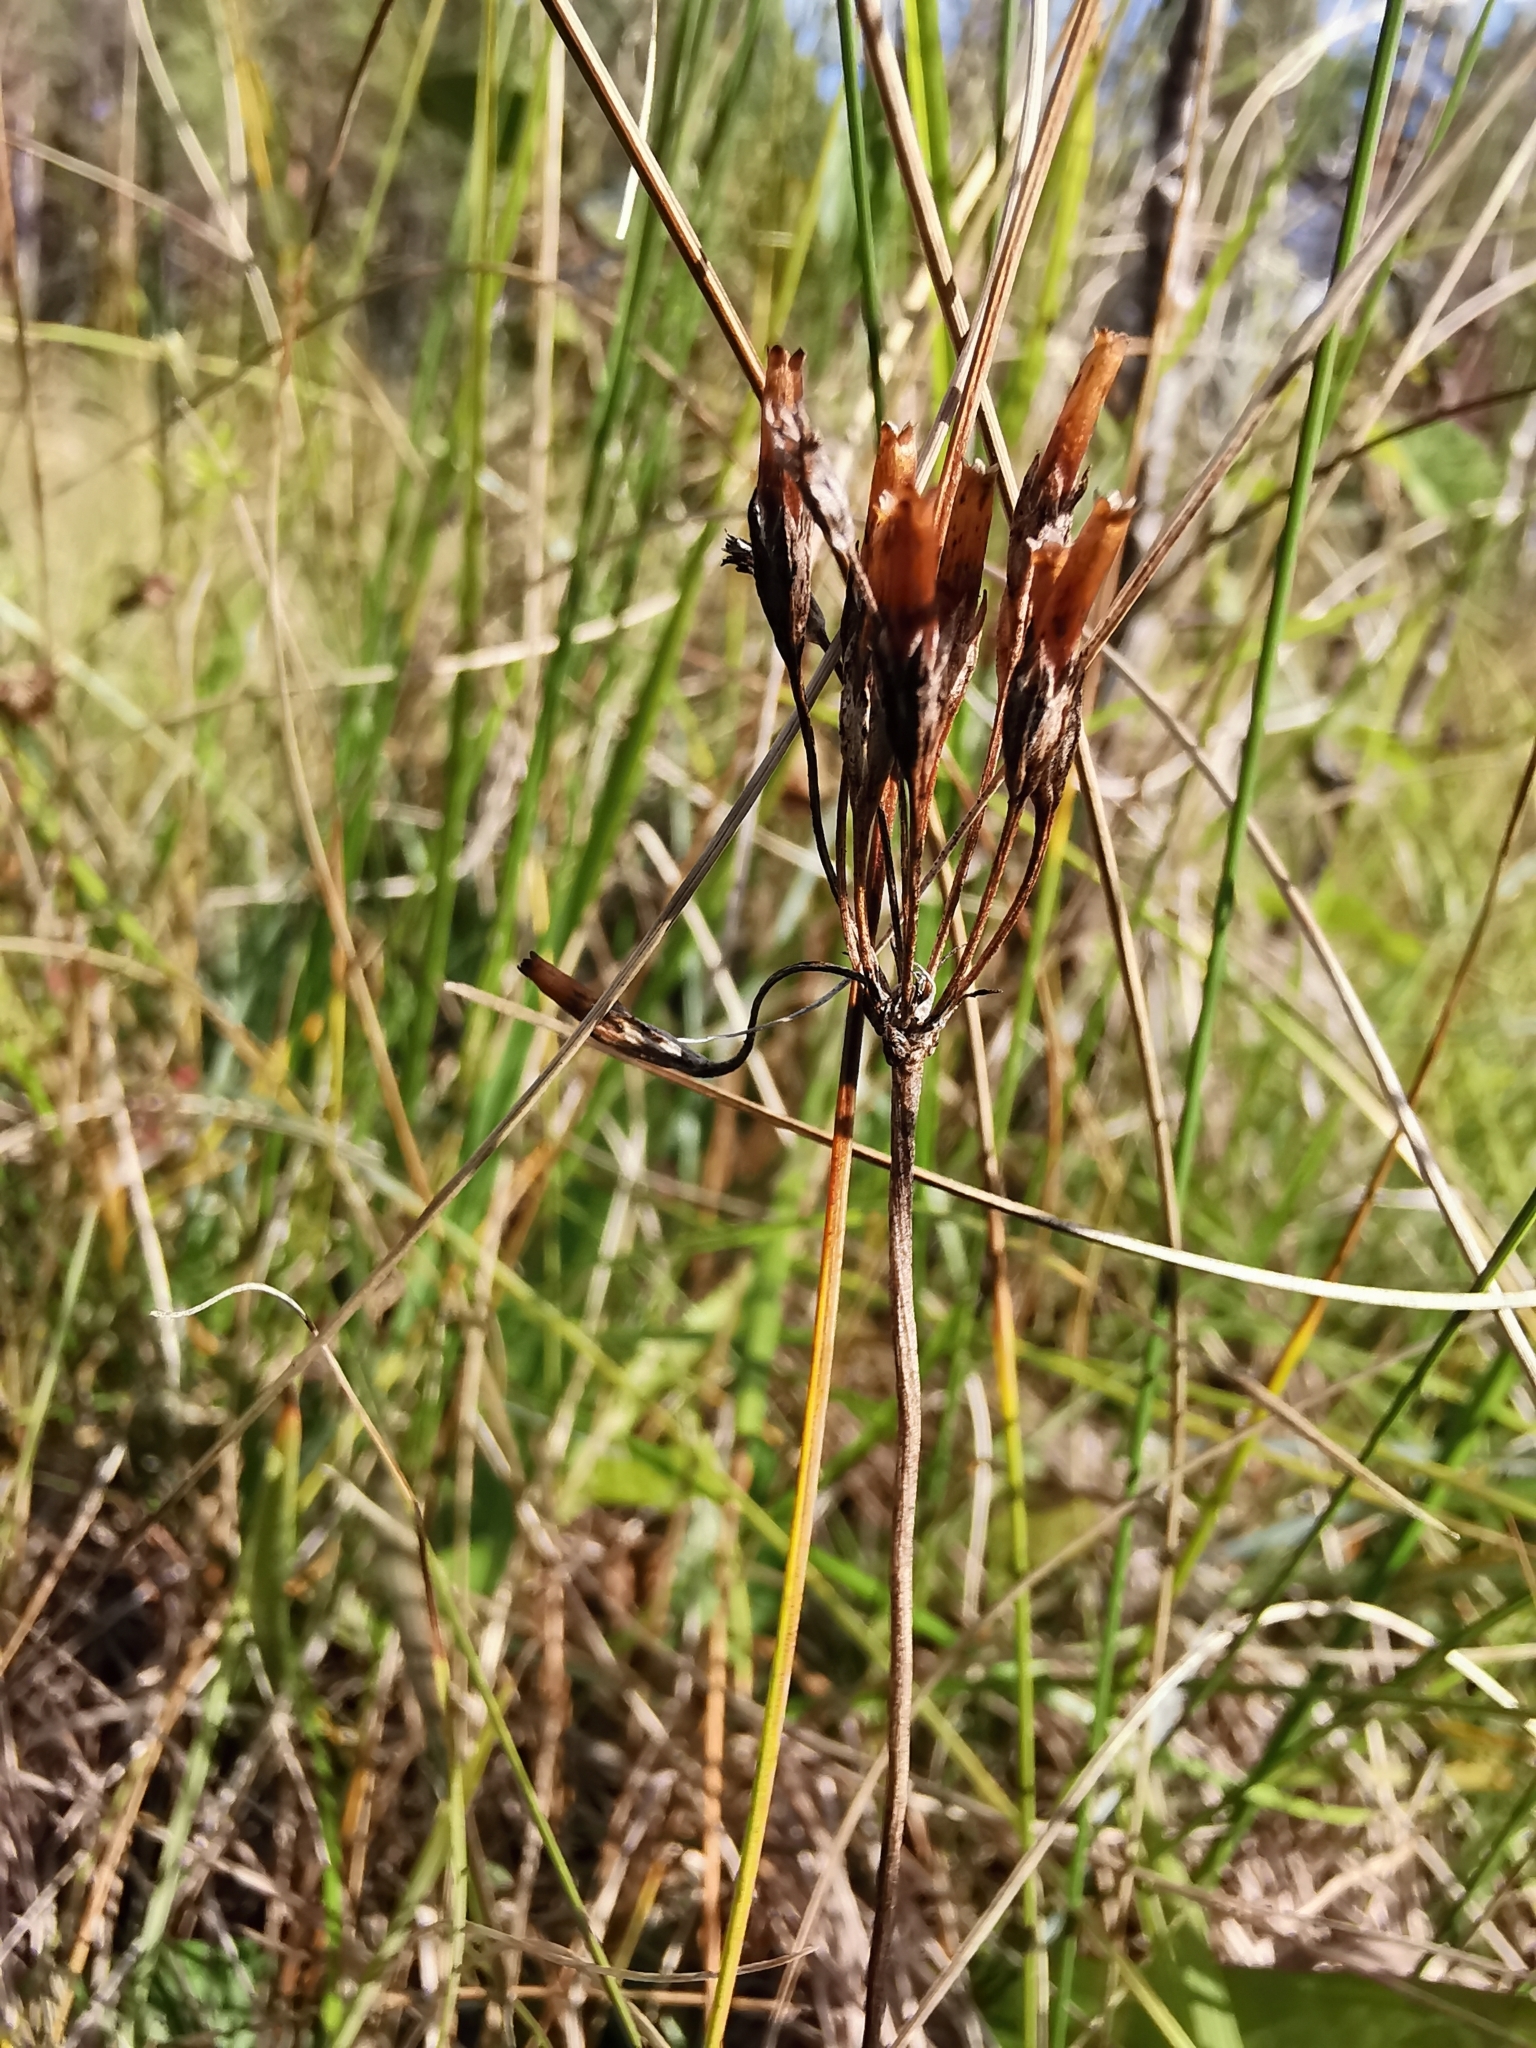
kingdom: Plantae
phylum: Tracheophyta
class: Magnoliopsida
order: Ericales
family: Primulaceae
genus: Primula
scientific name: Primula farinosa
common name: Bird's-eye primrose
